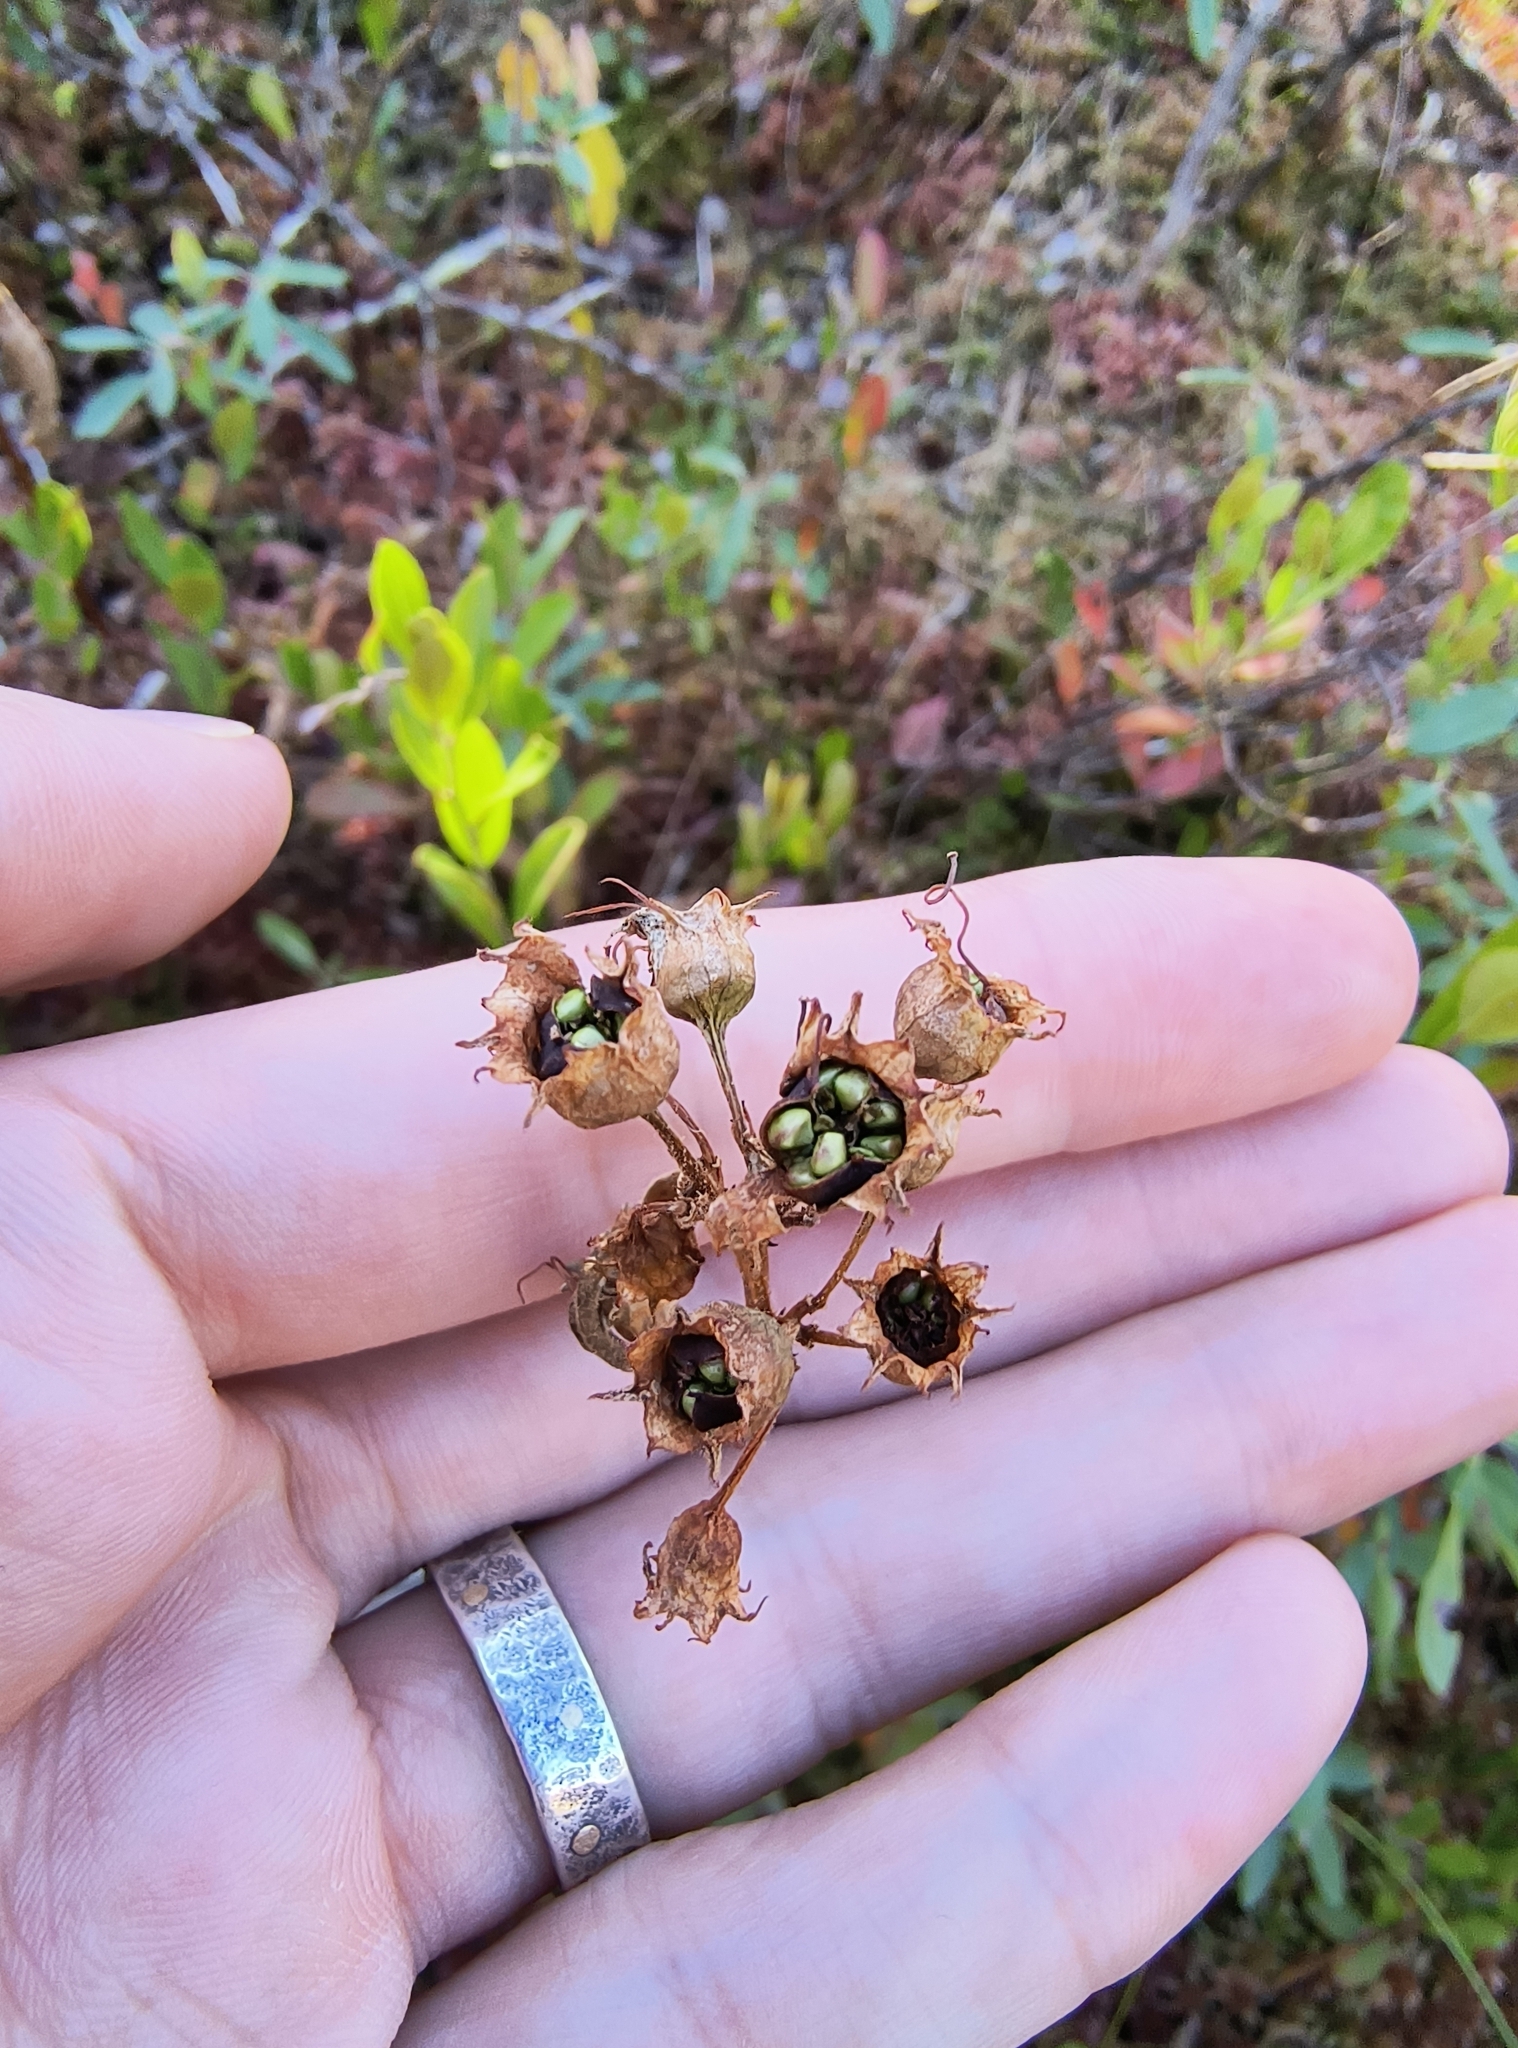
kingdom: Plantae
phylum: Tracheophyta
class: Magnoliopsida
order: Myrtales
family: Lythraceae
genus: Decodon
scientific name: Decodon verticillatus
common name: Hairy swamp loosestrife
